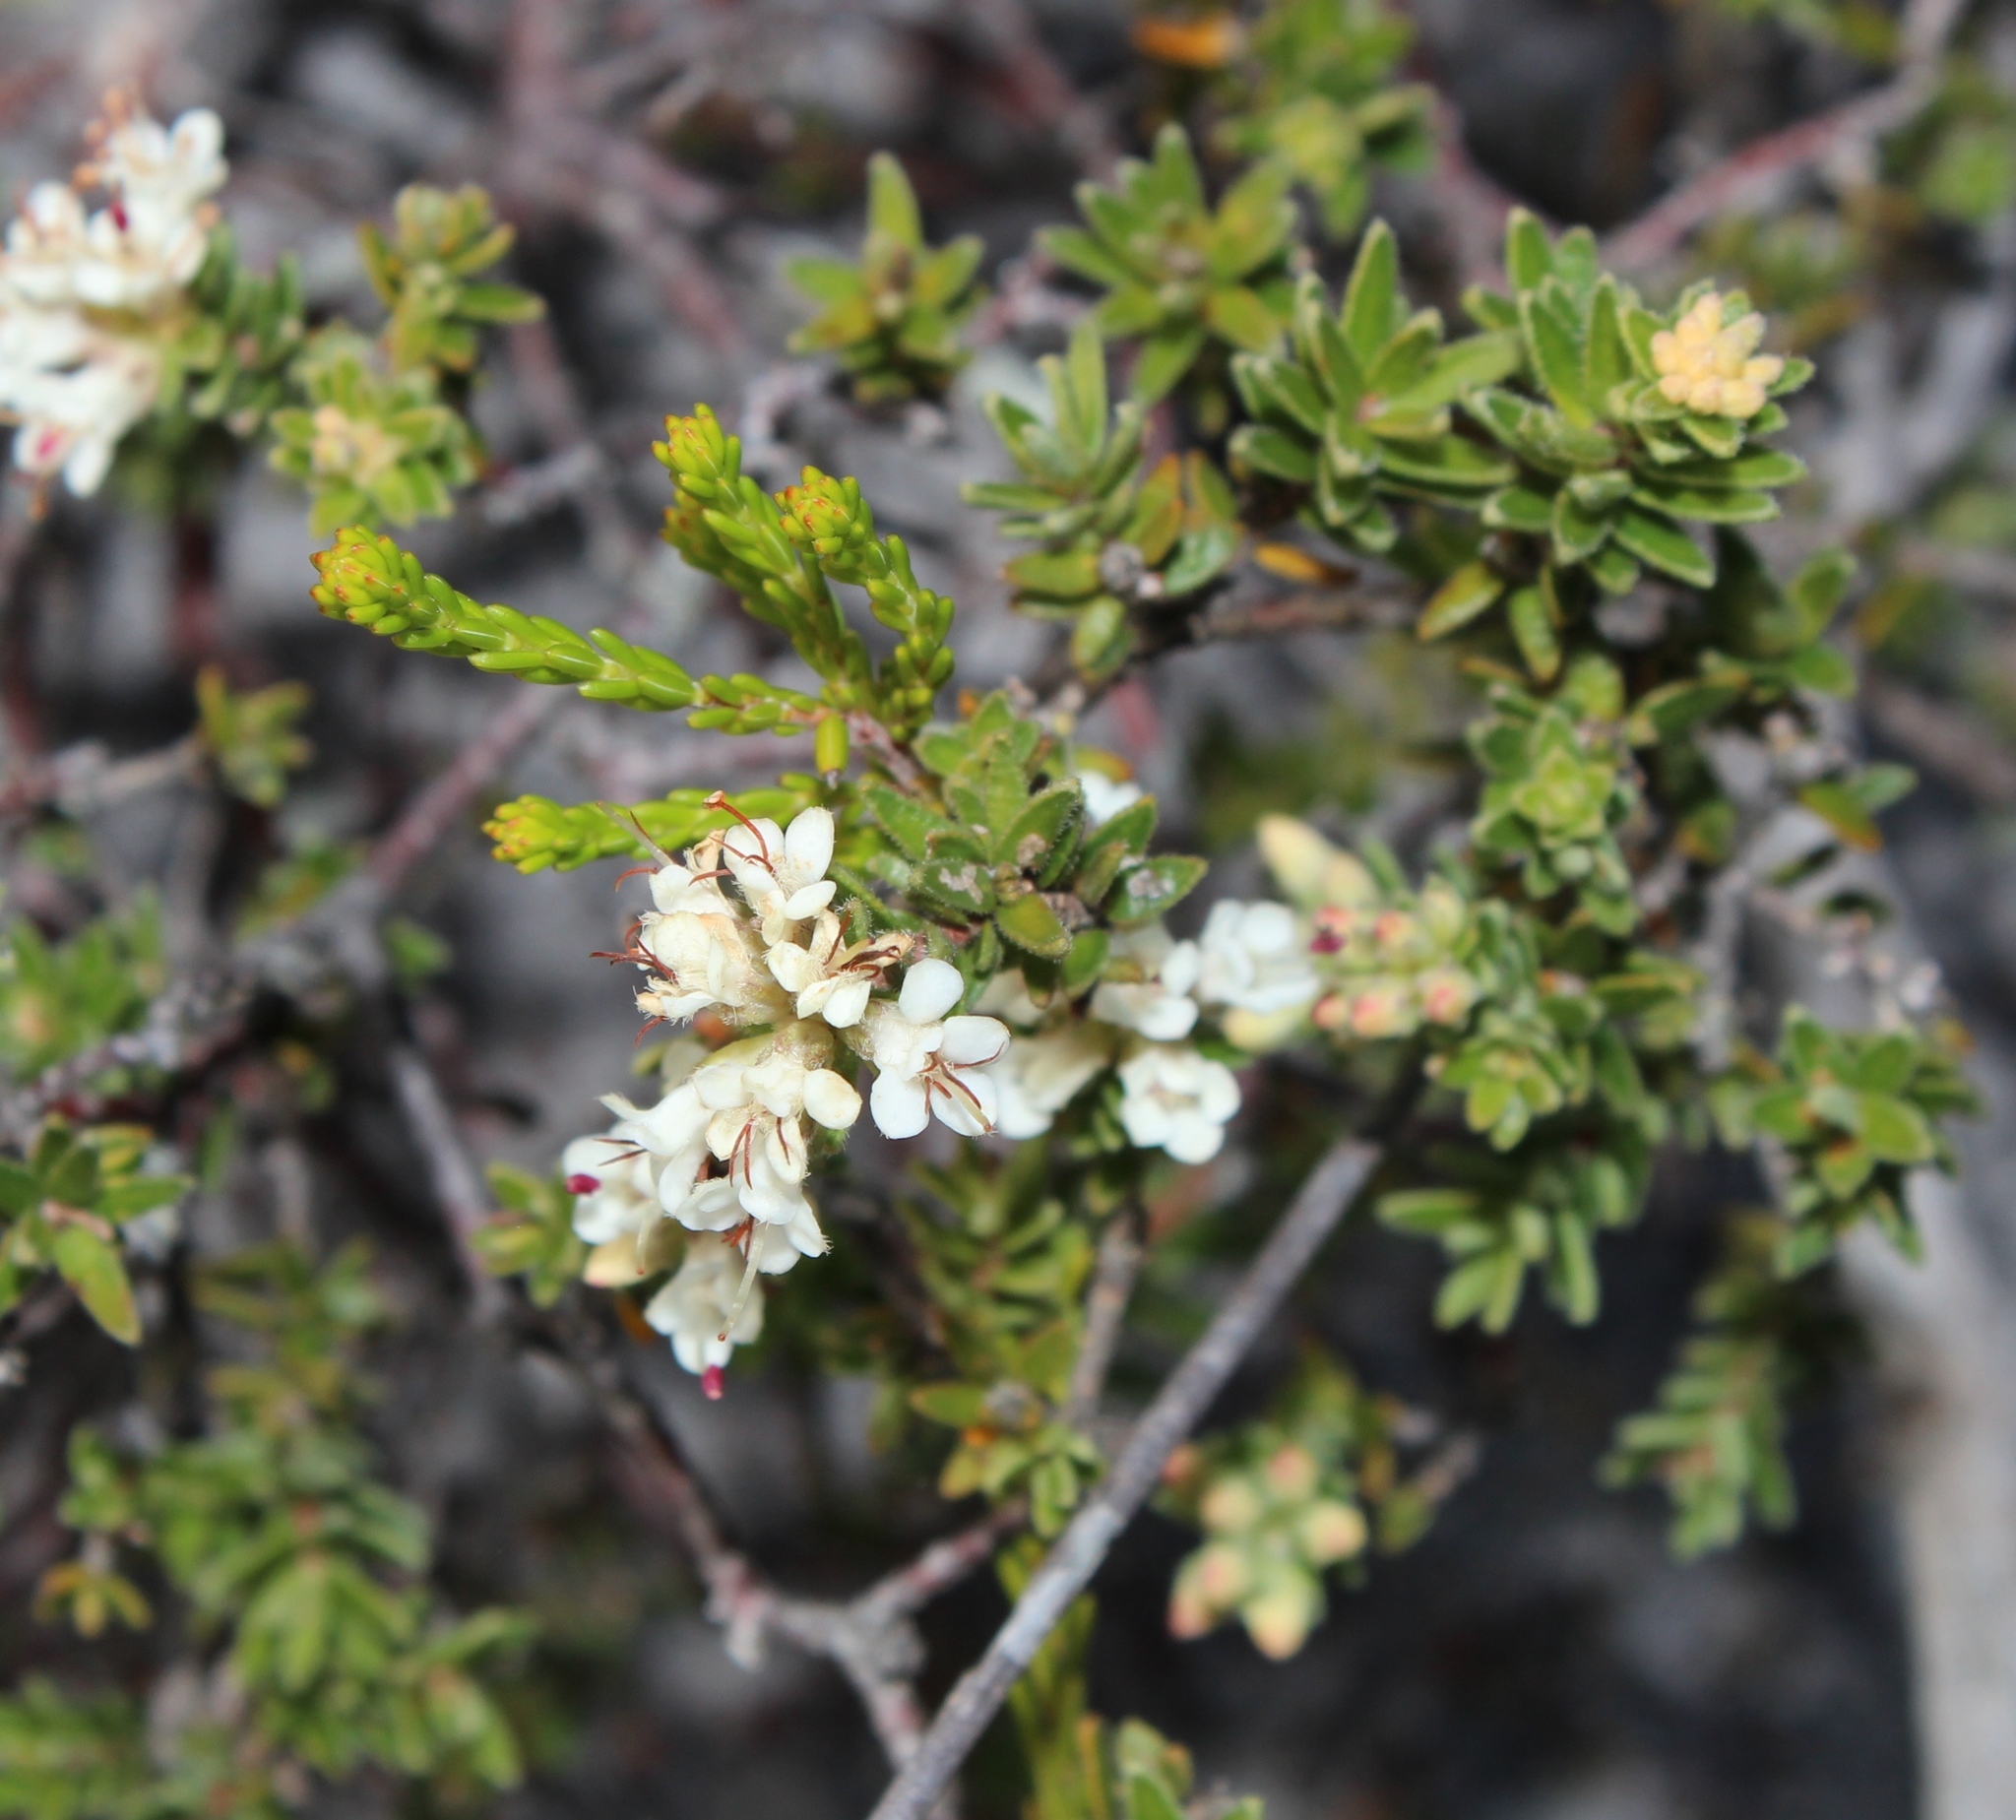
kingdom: Plantae
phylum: Tracheophyta
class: Magnoliopsida
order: Sapindales
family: Rutaceae
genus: Macrostylis
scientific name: Macrostylis villosa
